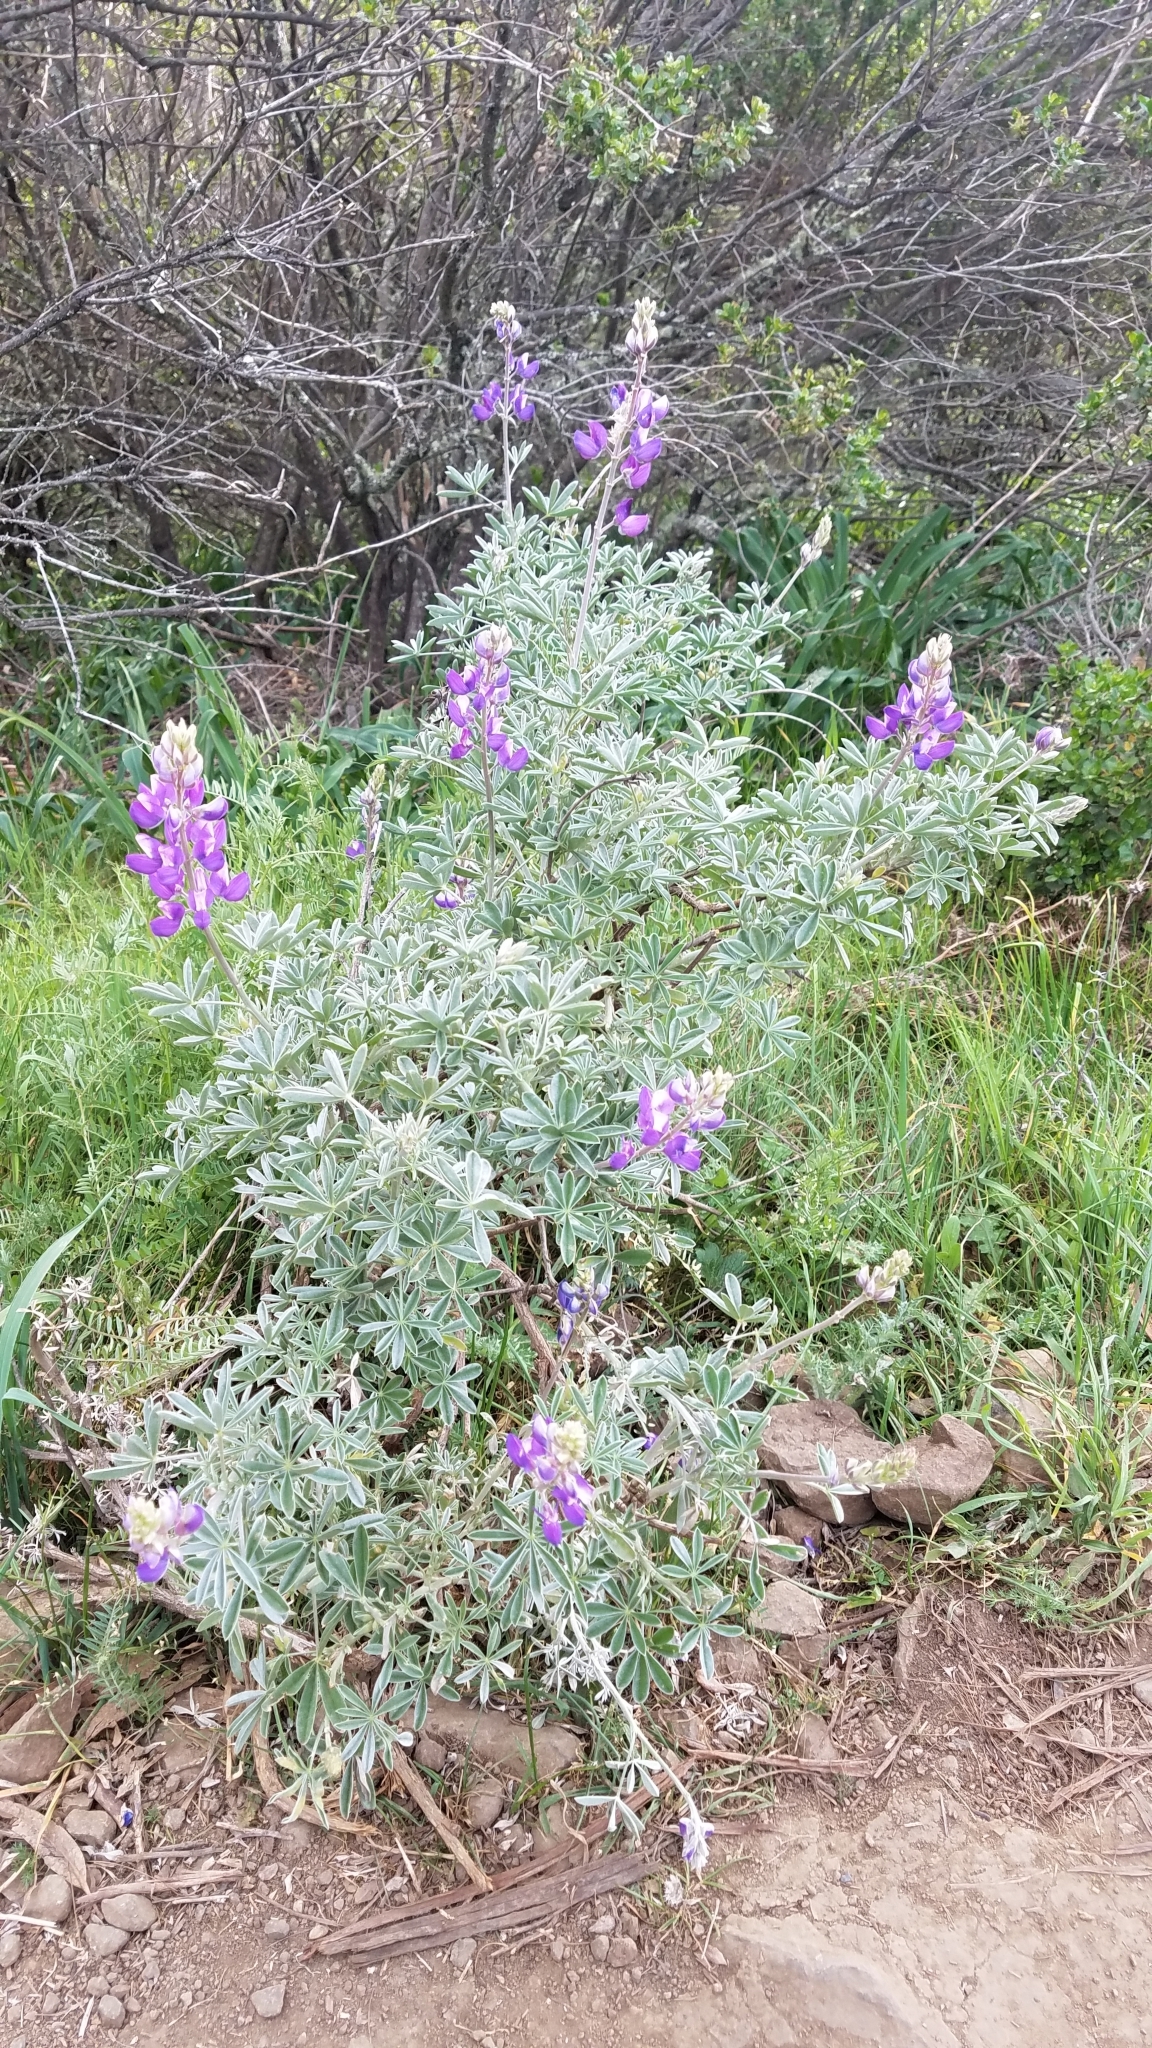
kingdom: Plantae
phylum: Tracheophyta
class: Magnoliopsida
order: Fabales
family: Fabaceae
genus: Lupinus
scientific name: Lupinus albifrons
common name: Foothill lupine
